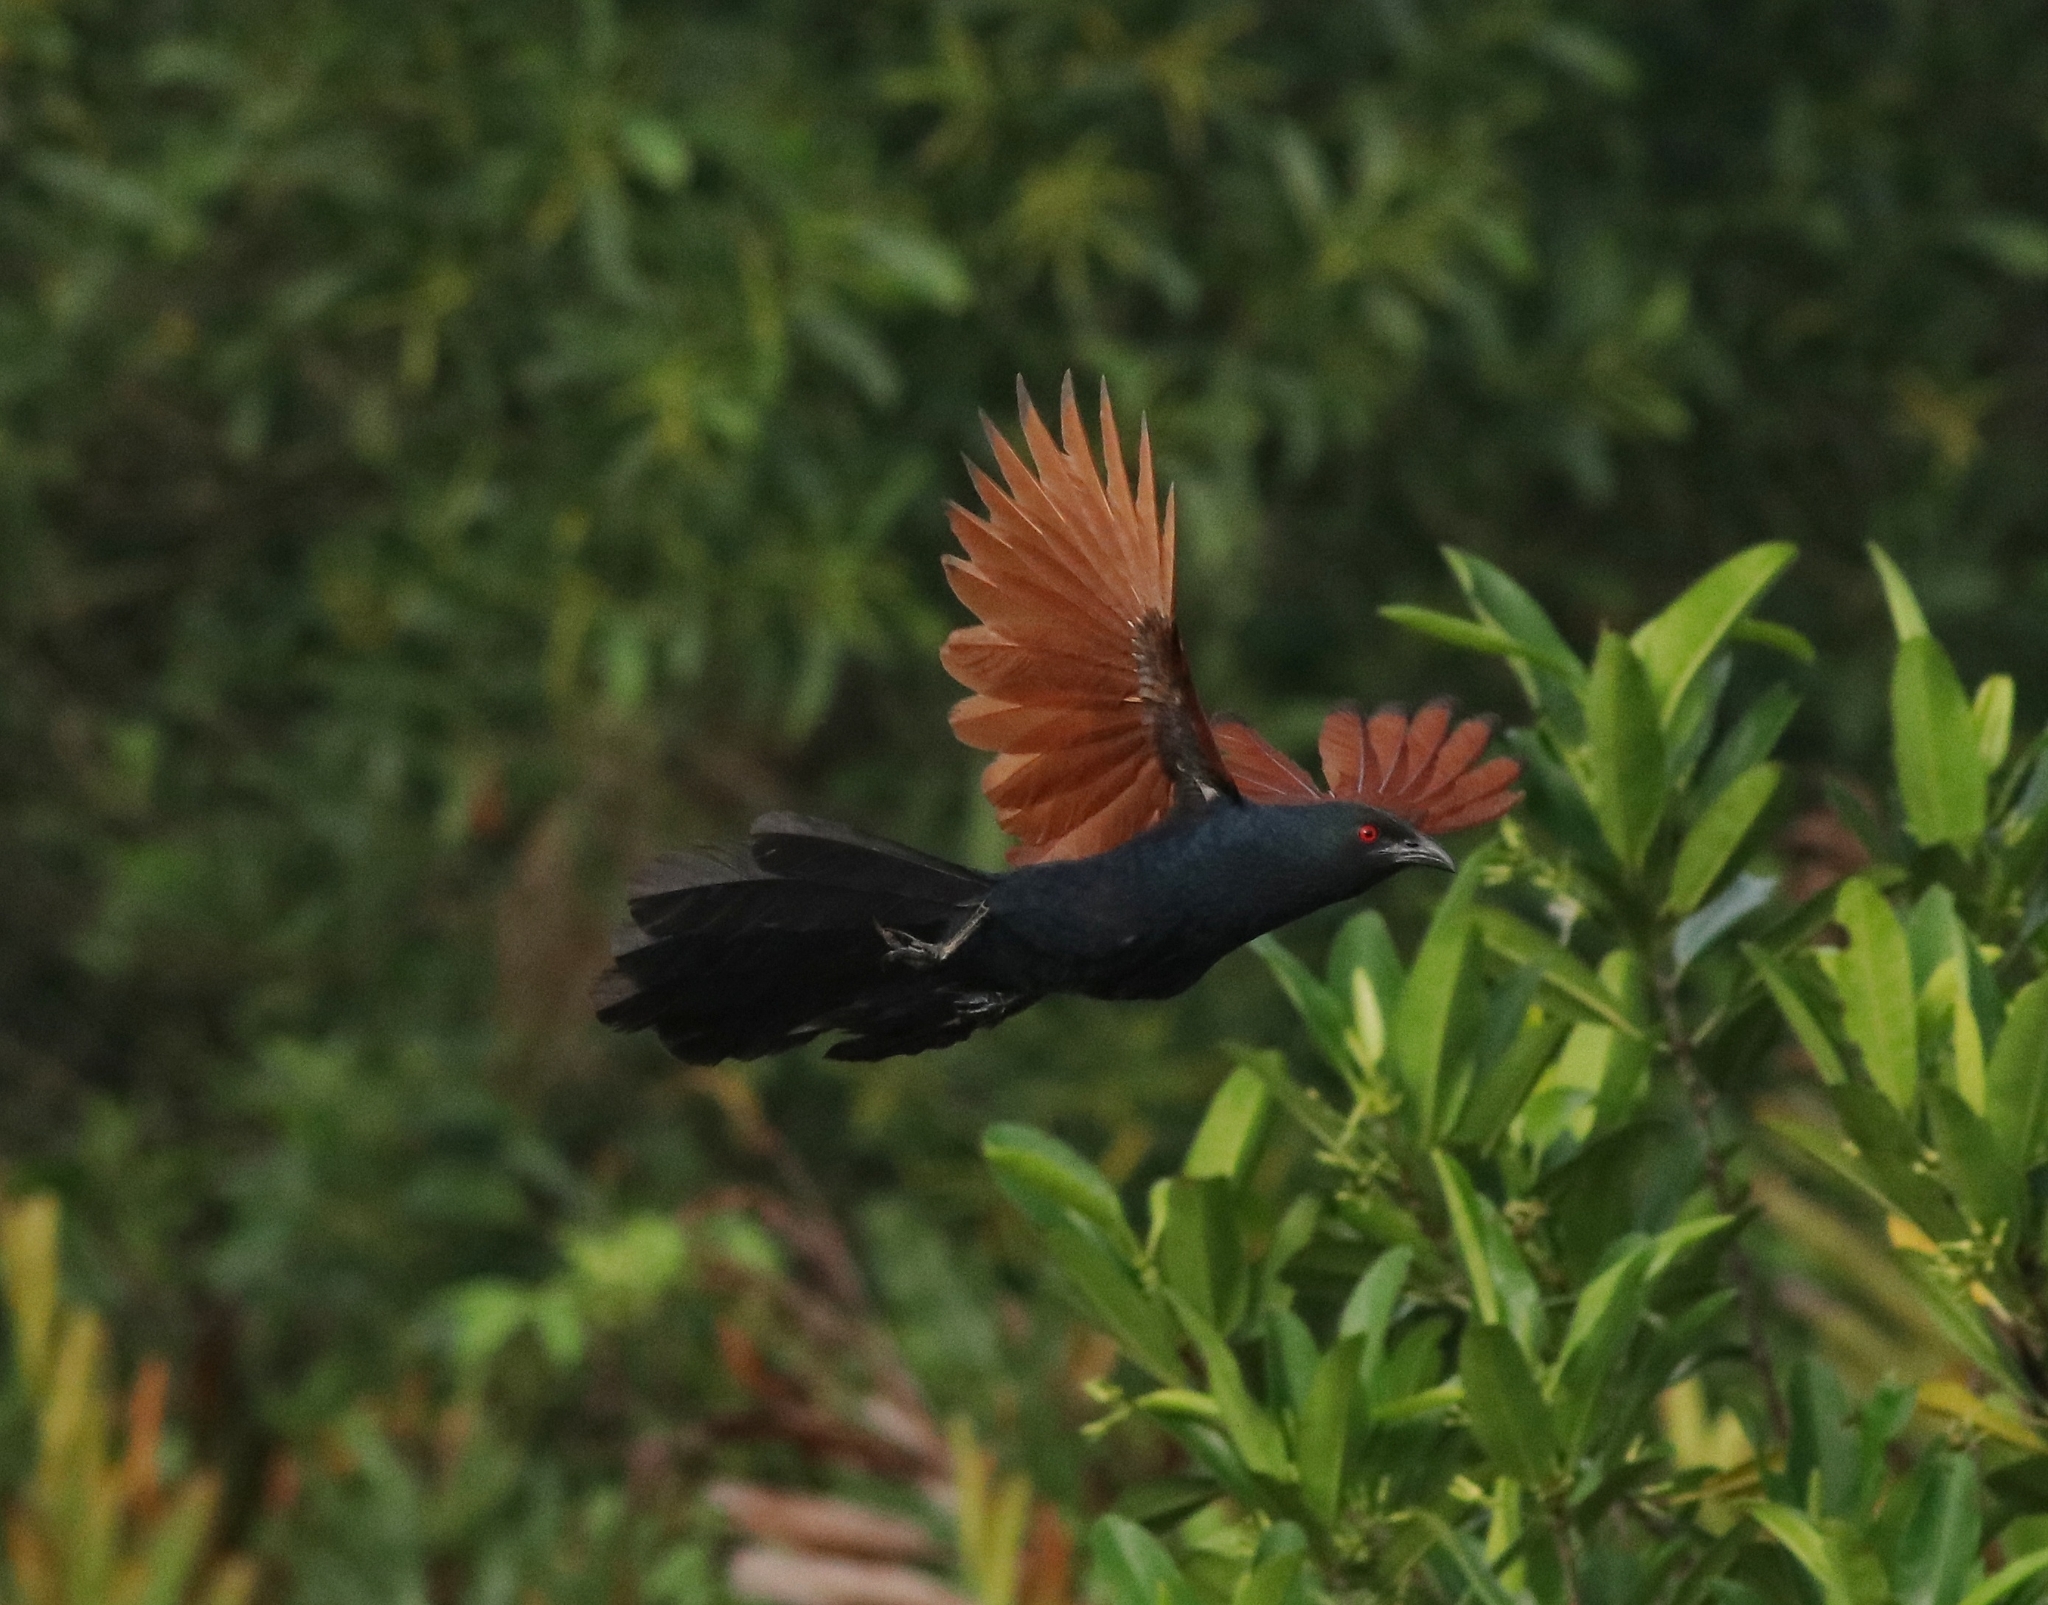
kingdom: Animalia
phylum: Chordata
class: Aves
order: Cuculiformes
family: Cuculidae
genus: Centropus
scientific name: Centropus sinensis
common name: Greater coucal
